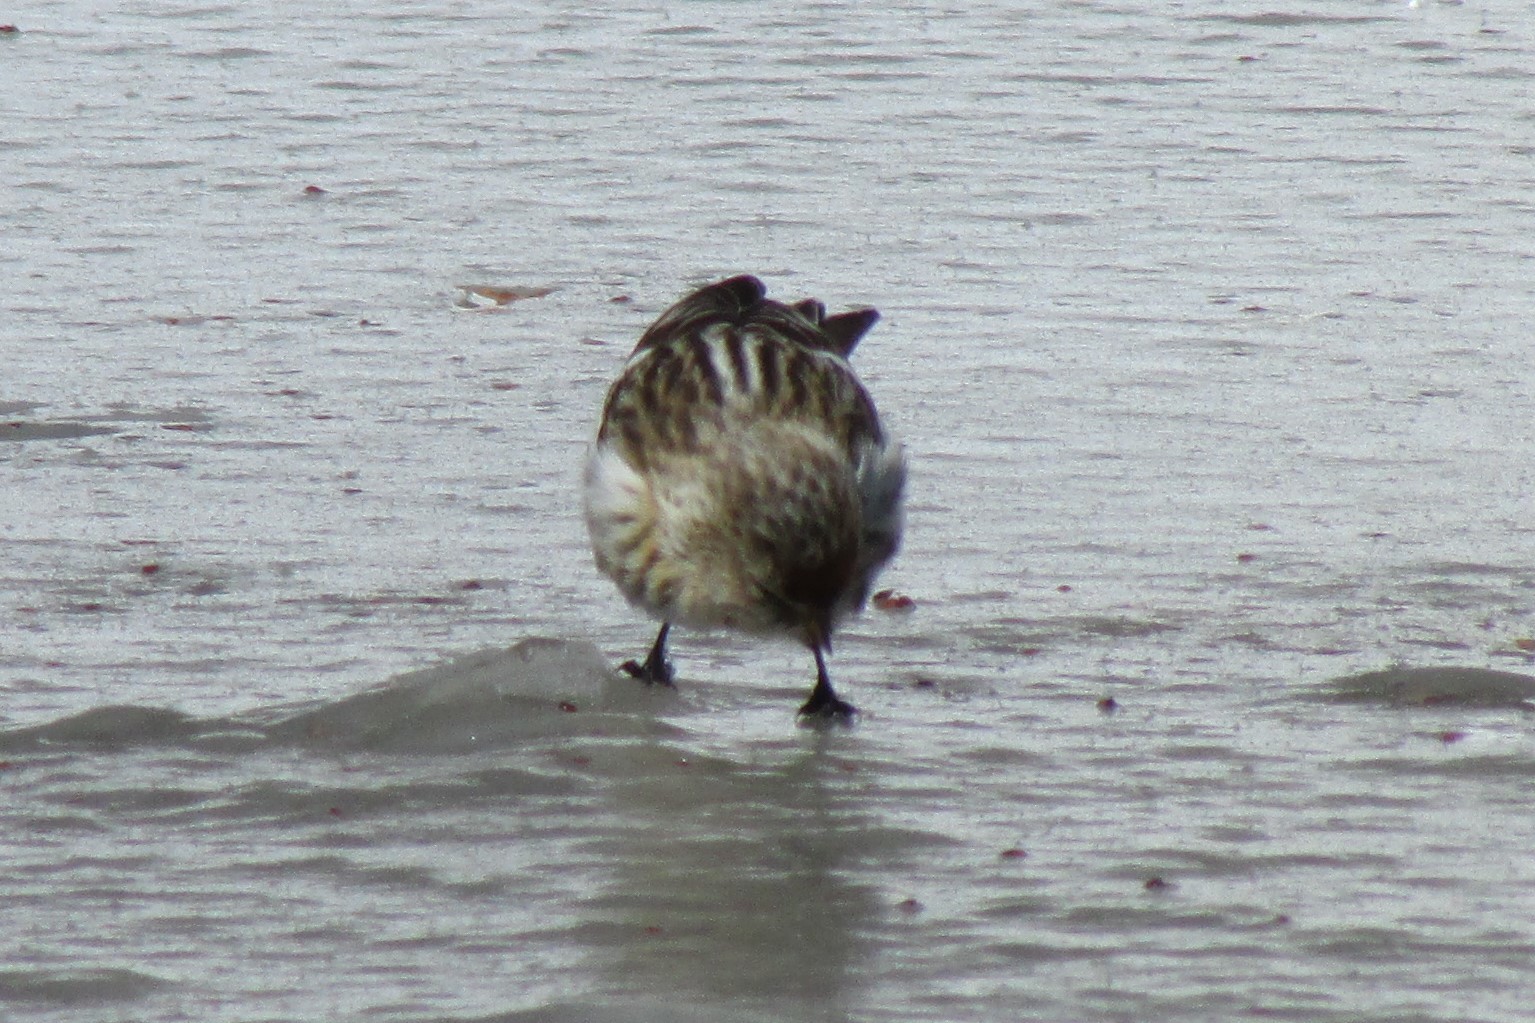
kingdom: Animalia
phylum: Chordata
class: Aves
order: Passeriformes
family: Fringillidae
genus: Acanthis
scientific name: Acanthis flammea
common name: Common redpoll
